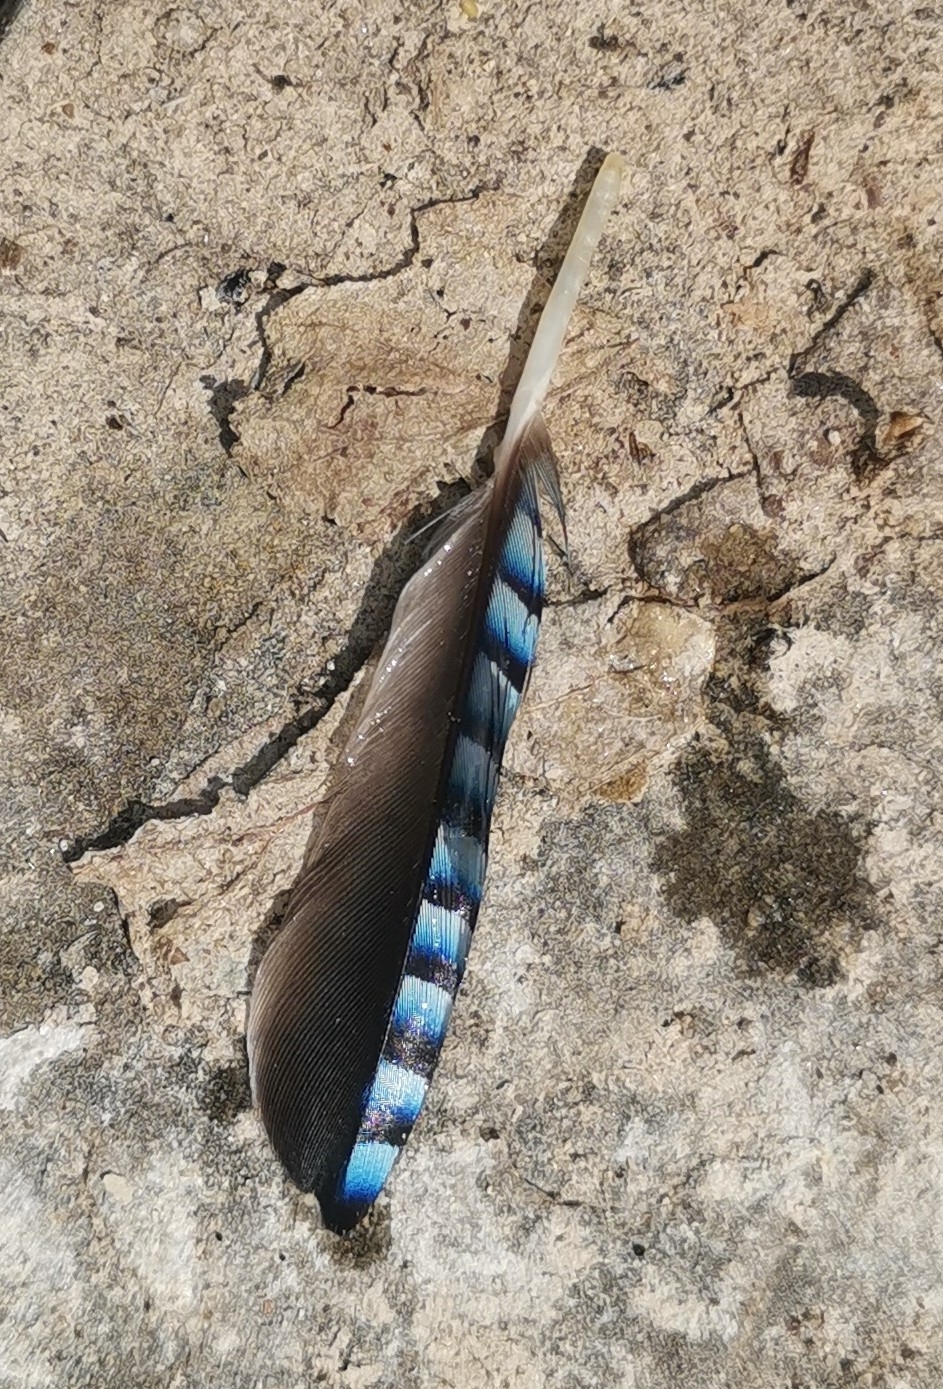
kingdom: Animalia
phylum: Chordata
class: Aves
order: Passeriformes
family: Corvidae
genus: Garrulus
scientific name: Garrulus glandarius
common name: Eurasian jay
